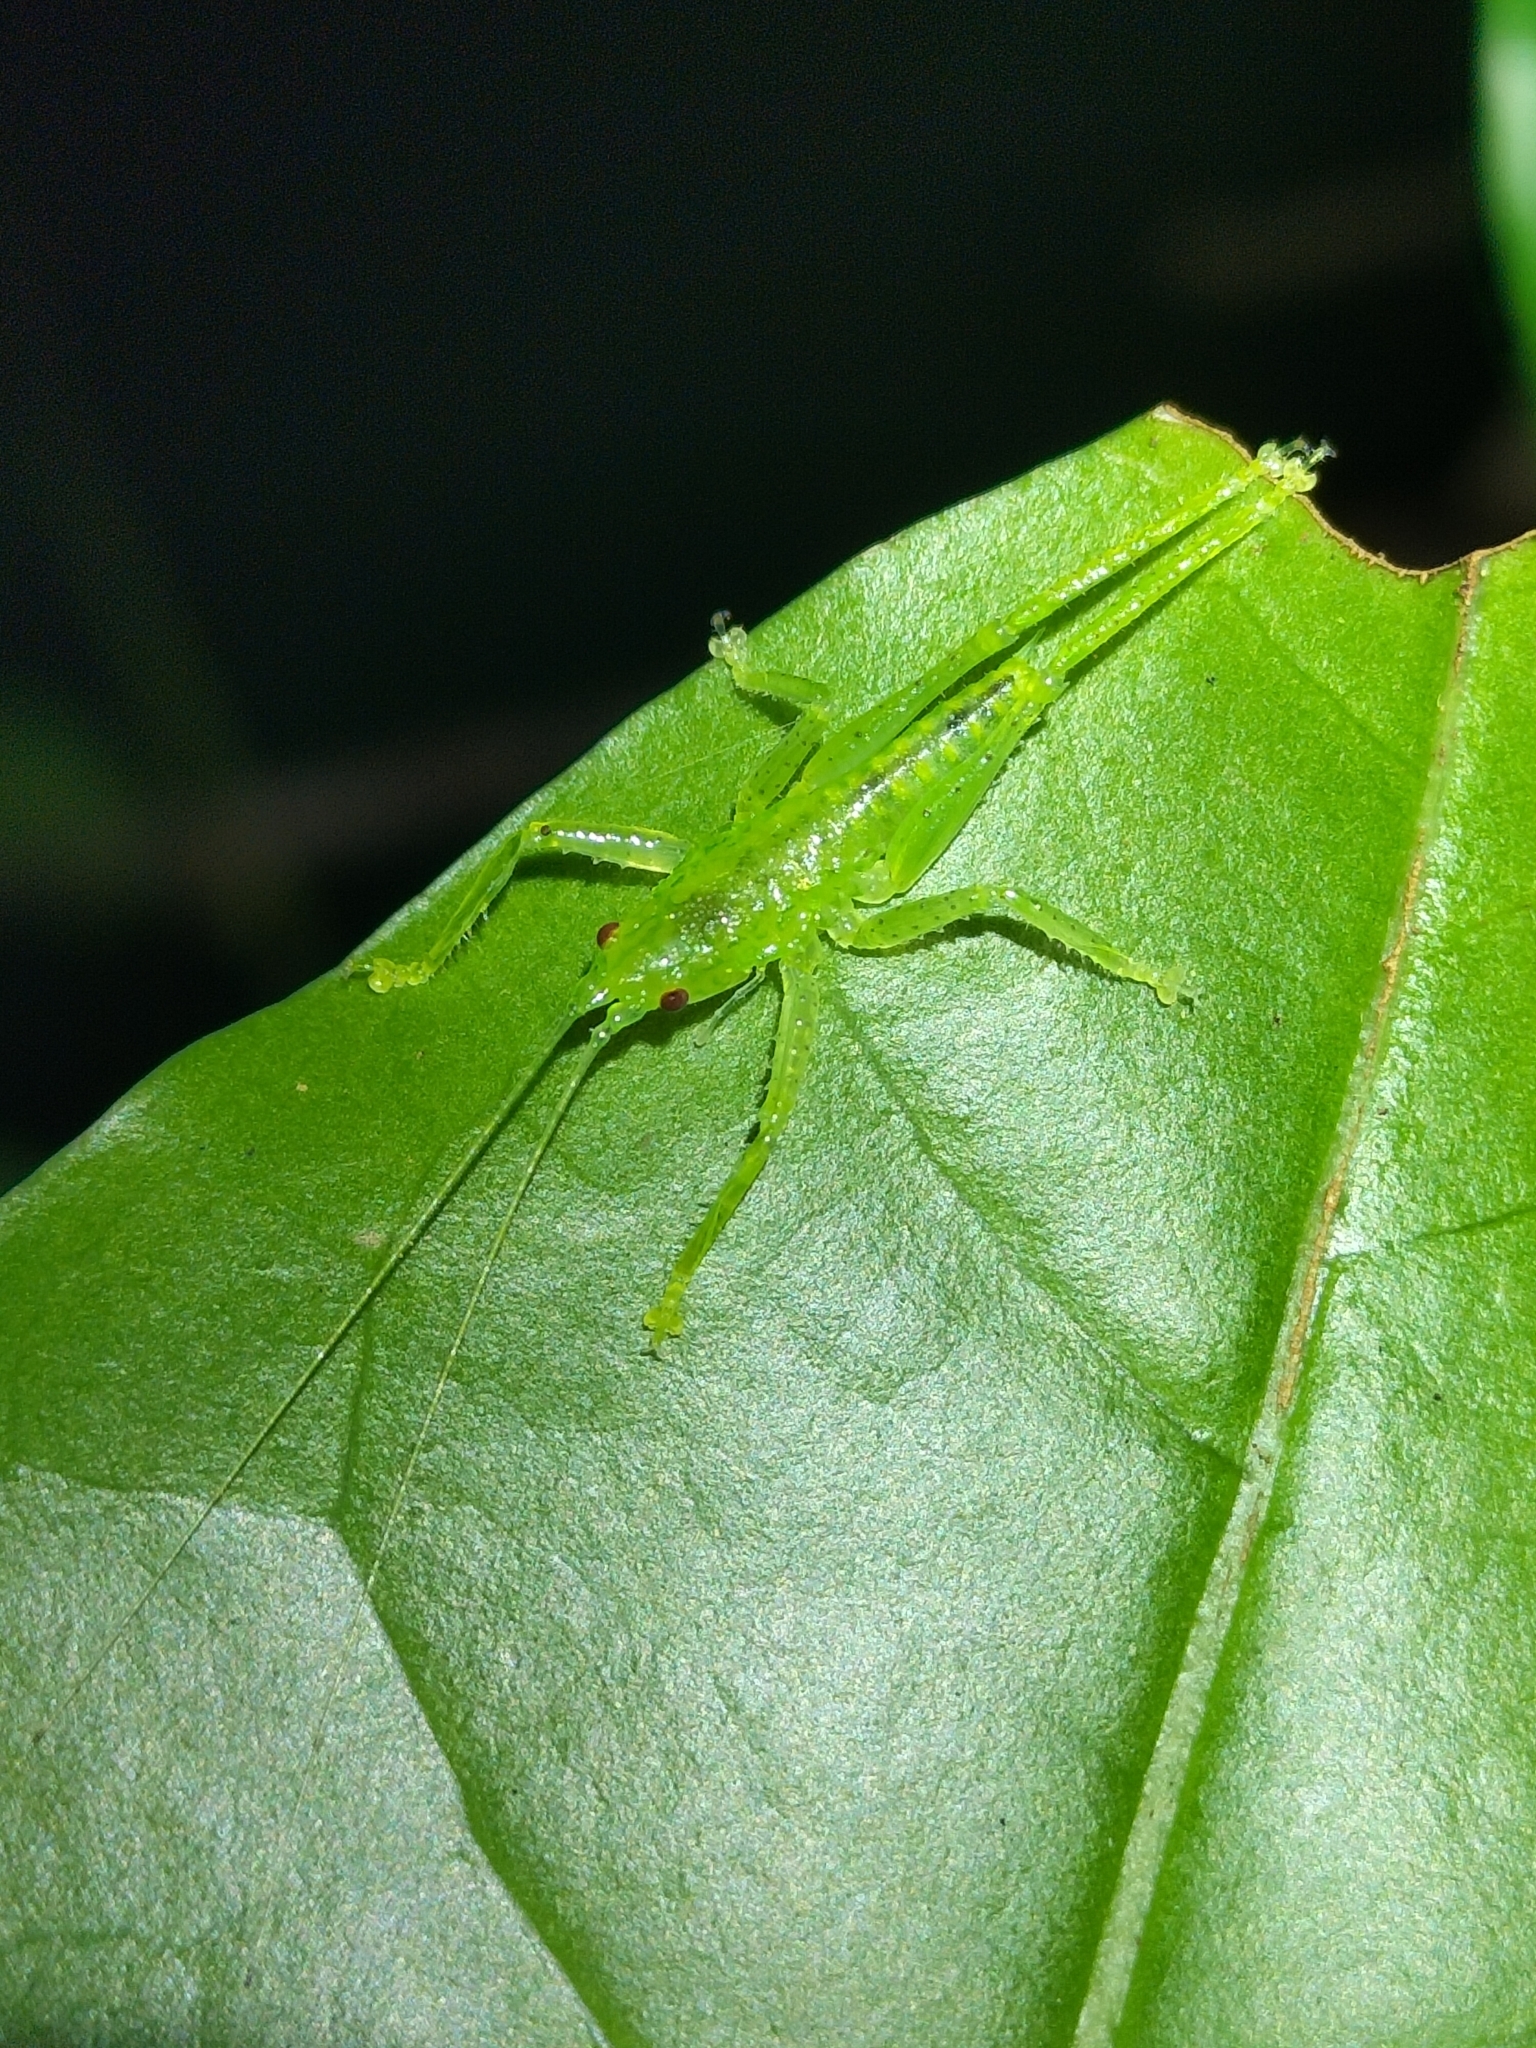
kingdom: Animalia
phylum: Arthropoda
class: Insecta
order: Orthoptera
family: Tettigoniidae
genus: Emeraldagraecia
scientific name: Emeraldagraecia munggarifrons
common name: Pink-faced emerald
